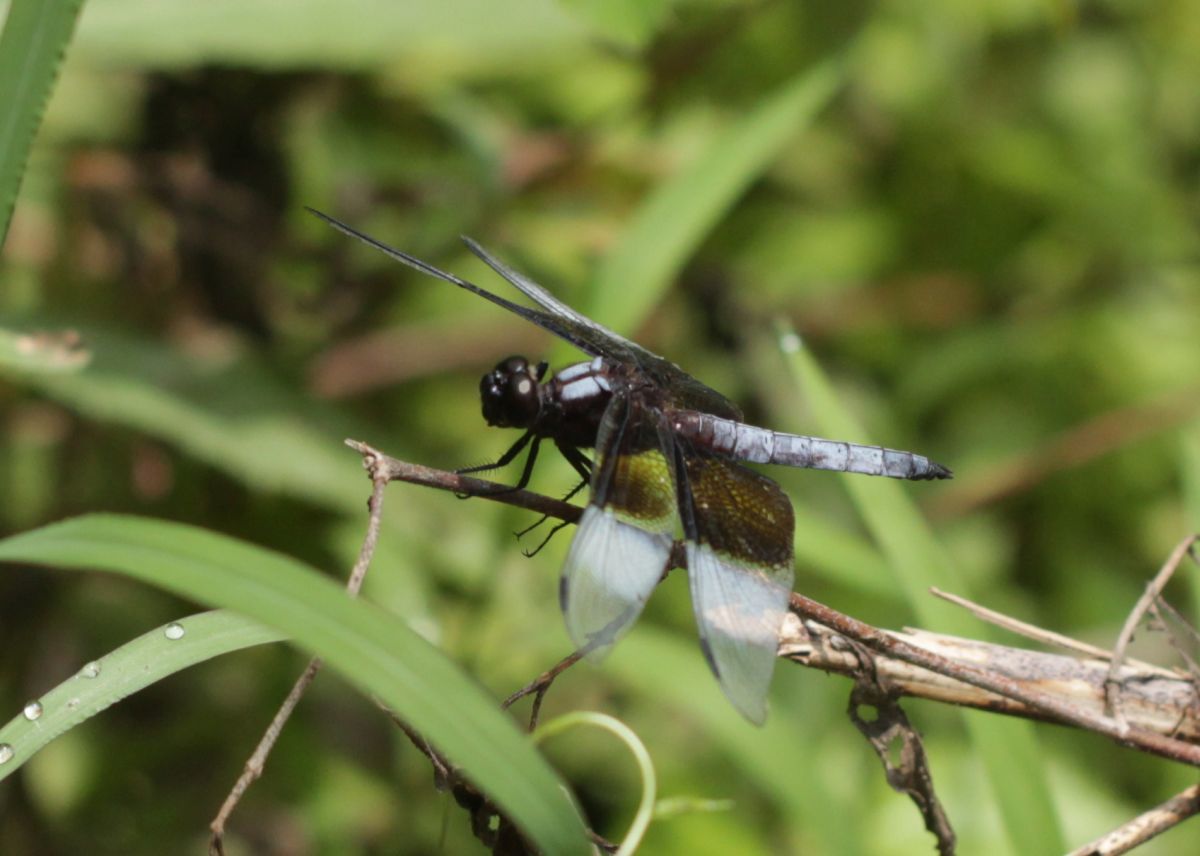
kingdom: Animalia
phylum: Arthropoda
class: Insecta
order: Odonata
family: Libellulidae
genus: Libellula
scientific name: Libellula luctuosa
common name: Widow skimmer
